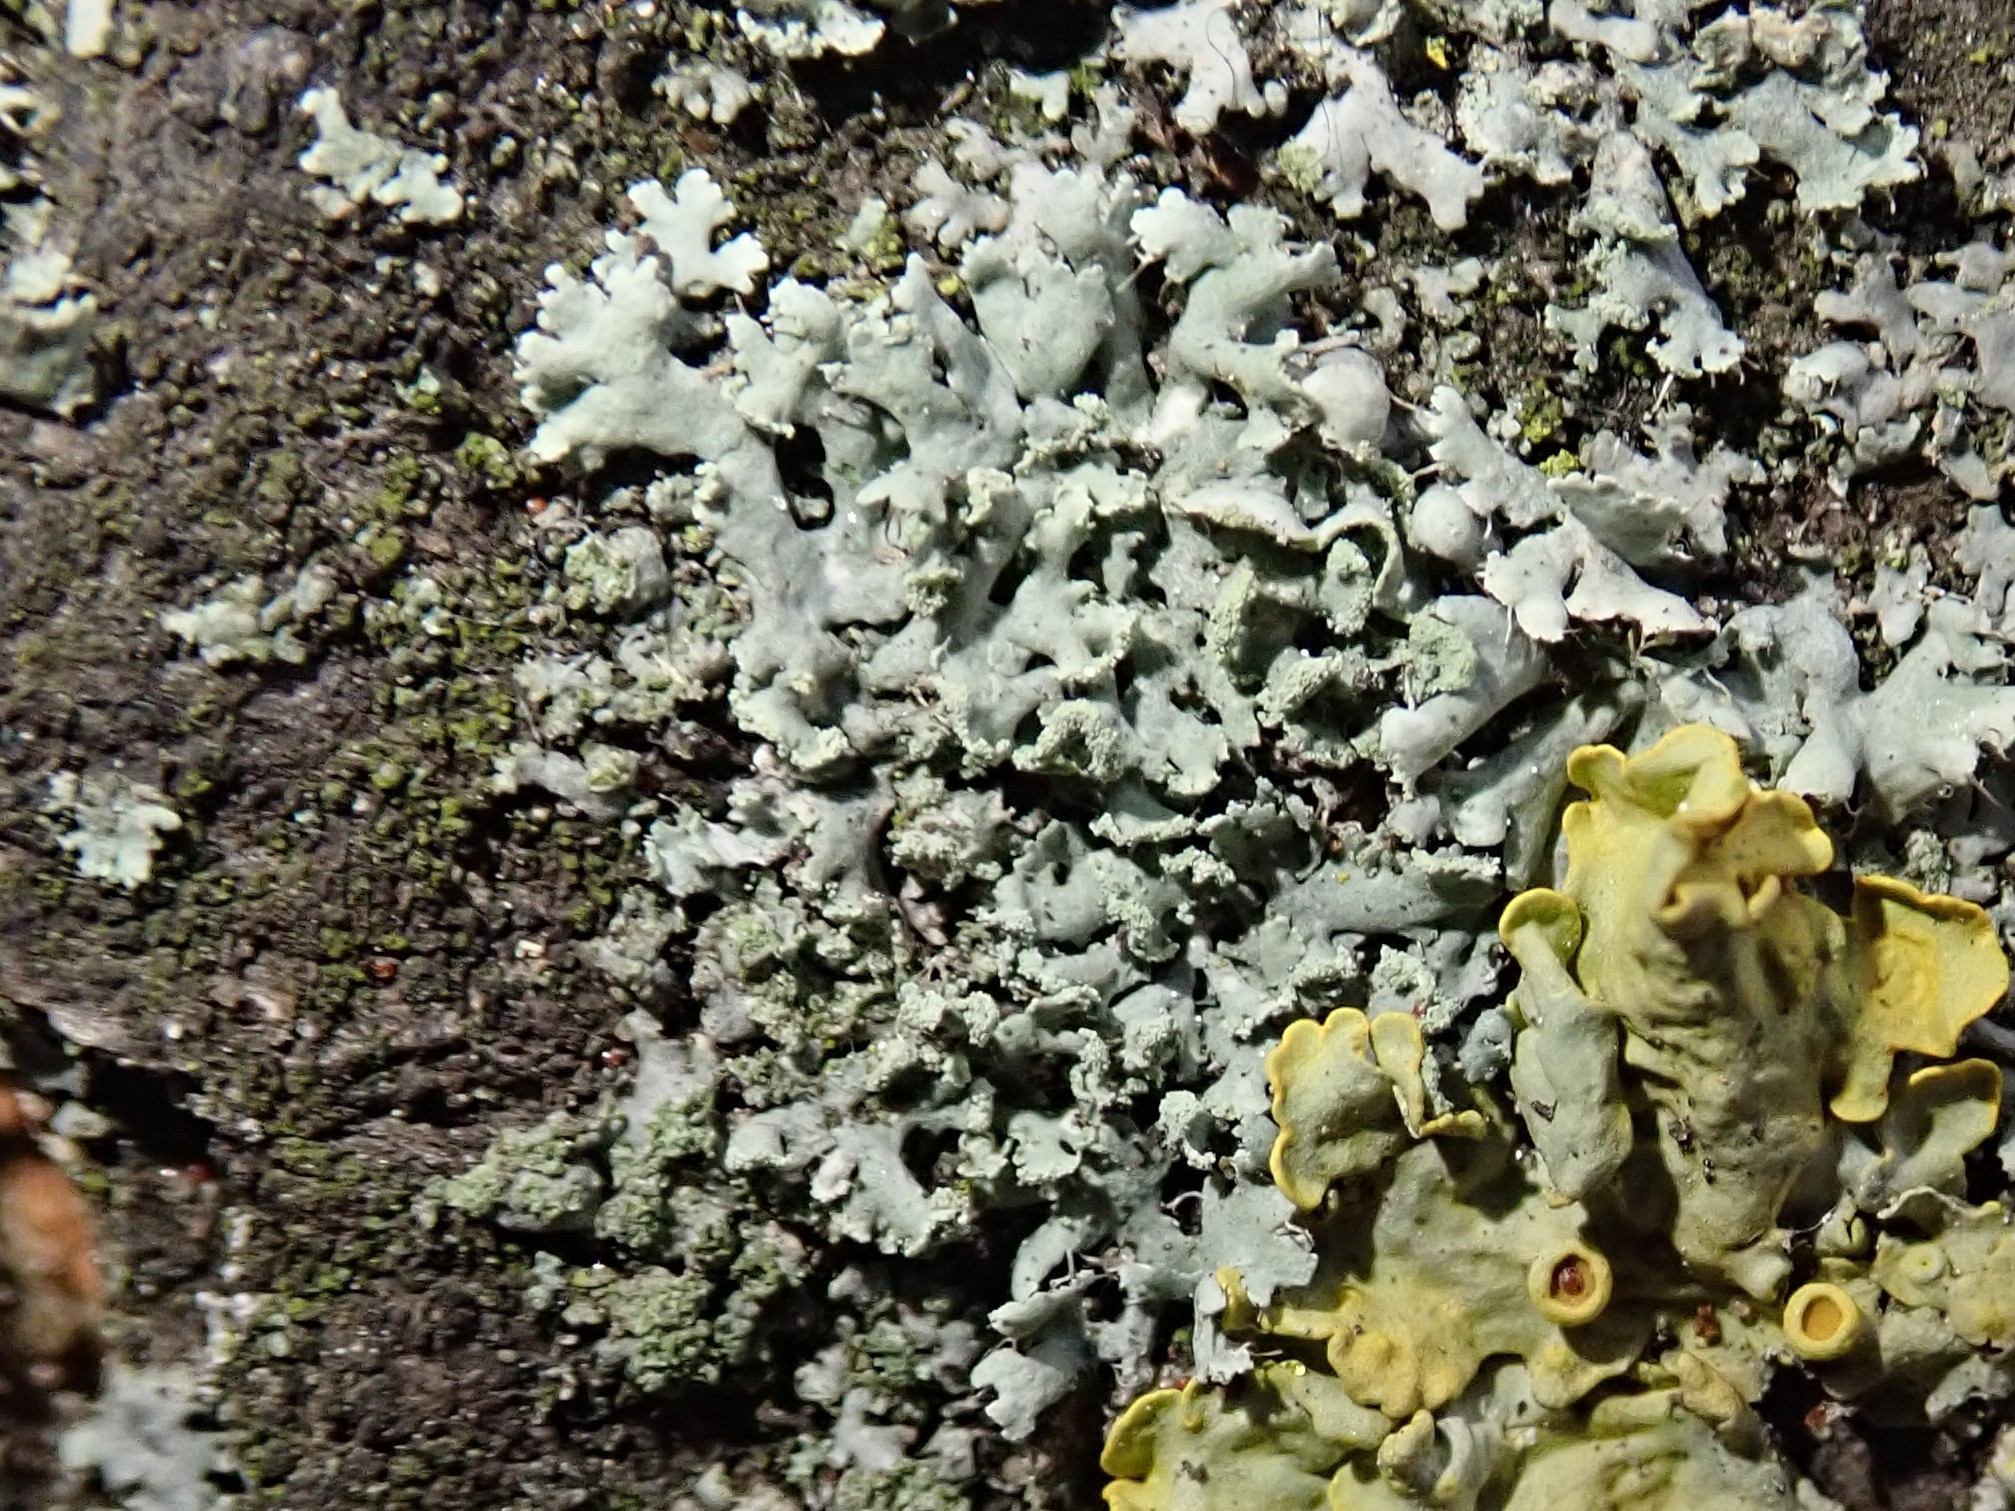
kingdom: Fungi
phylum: Ascomycota
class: Lecanoromycetes
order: Caliciales
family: Physciaceae
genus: Physcia
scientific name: Physcia adscendens
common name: Hooded rosette lichen
